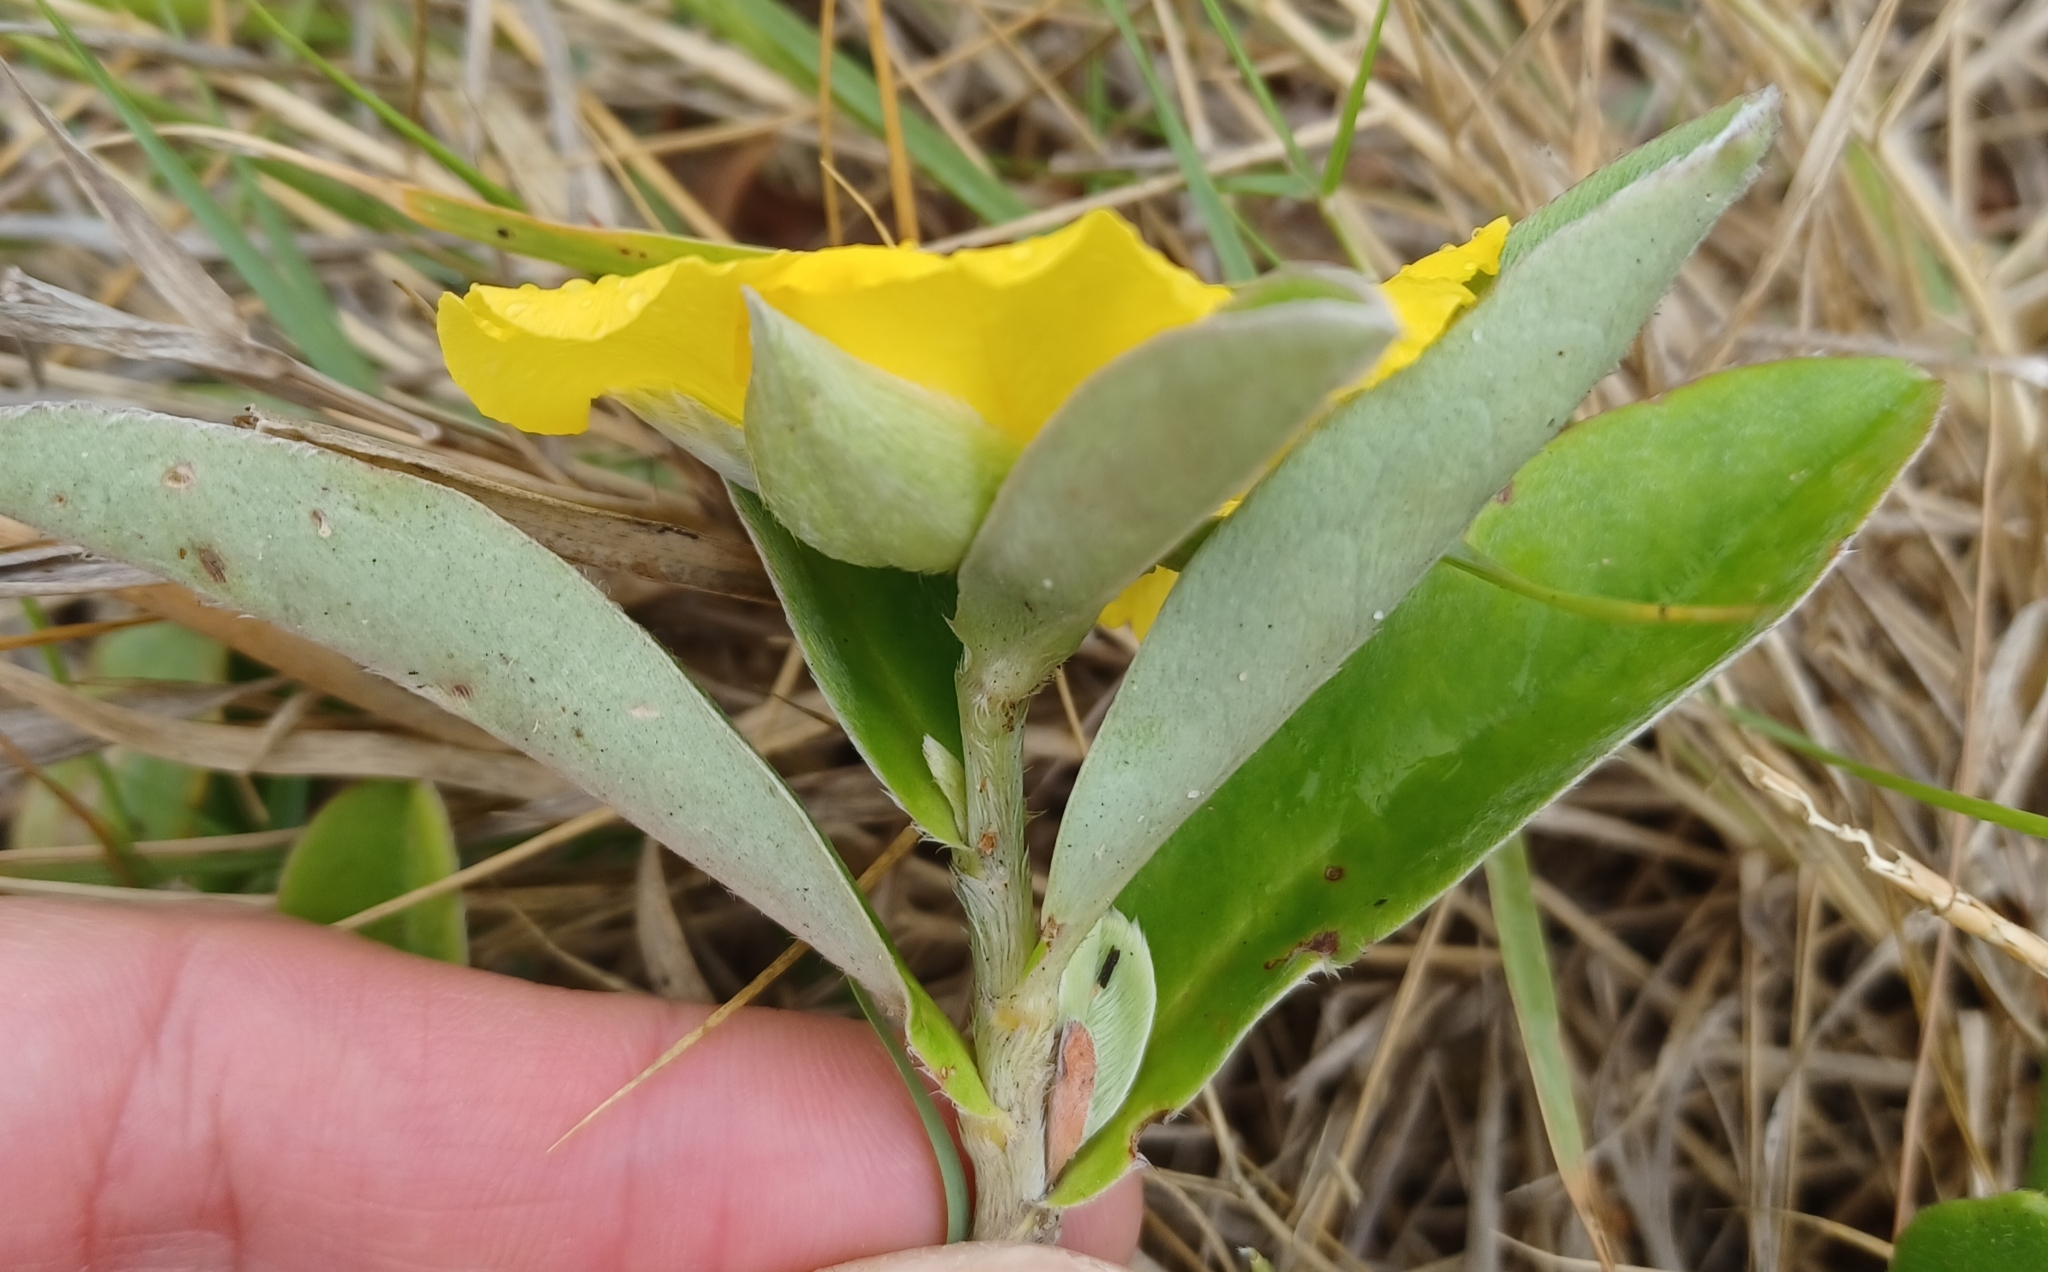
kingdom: Plantae
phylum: Tracheophyta
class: Magnoliopsida
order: Dilleniales
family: Dilleniaceae
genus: Hibbertia
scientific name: Hibbertia scandens
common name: Climbing guinea-flower
